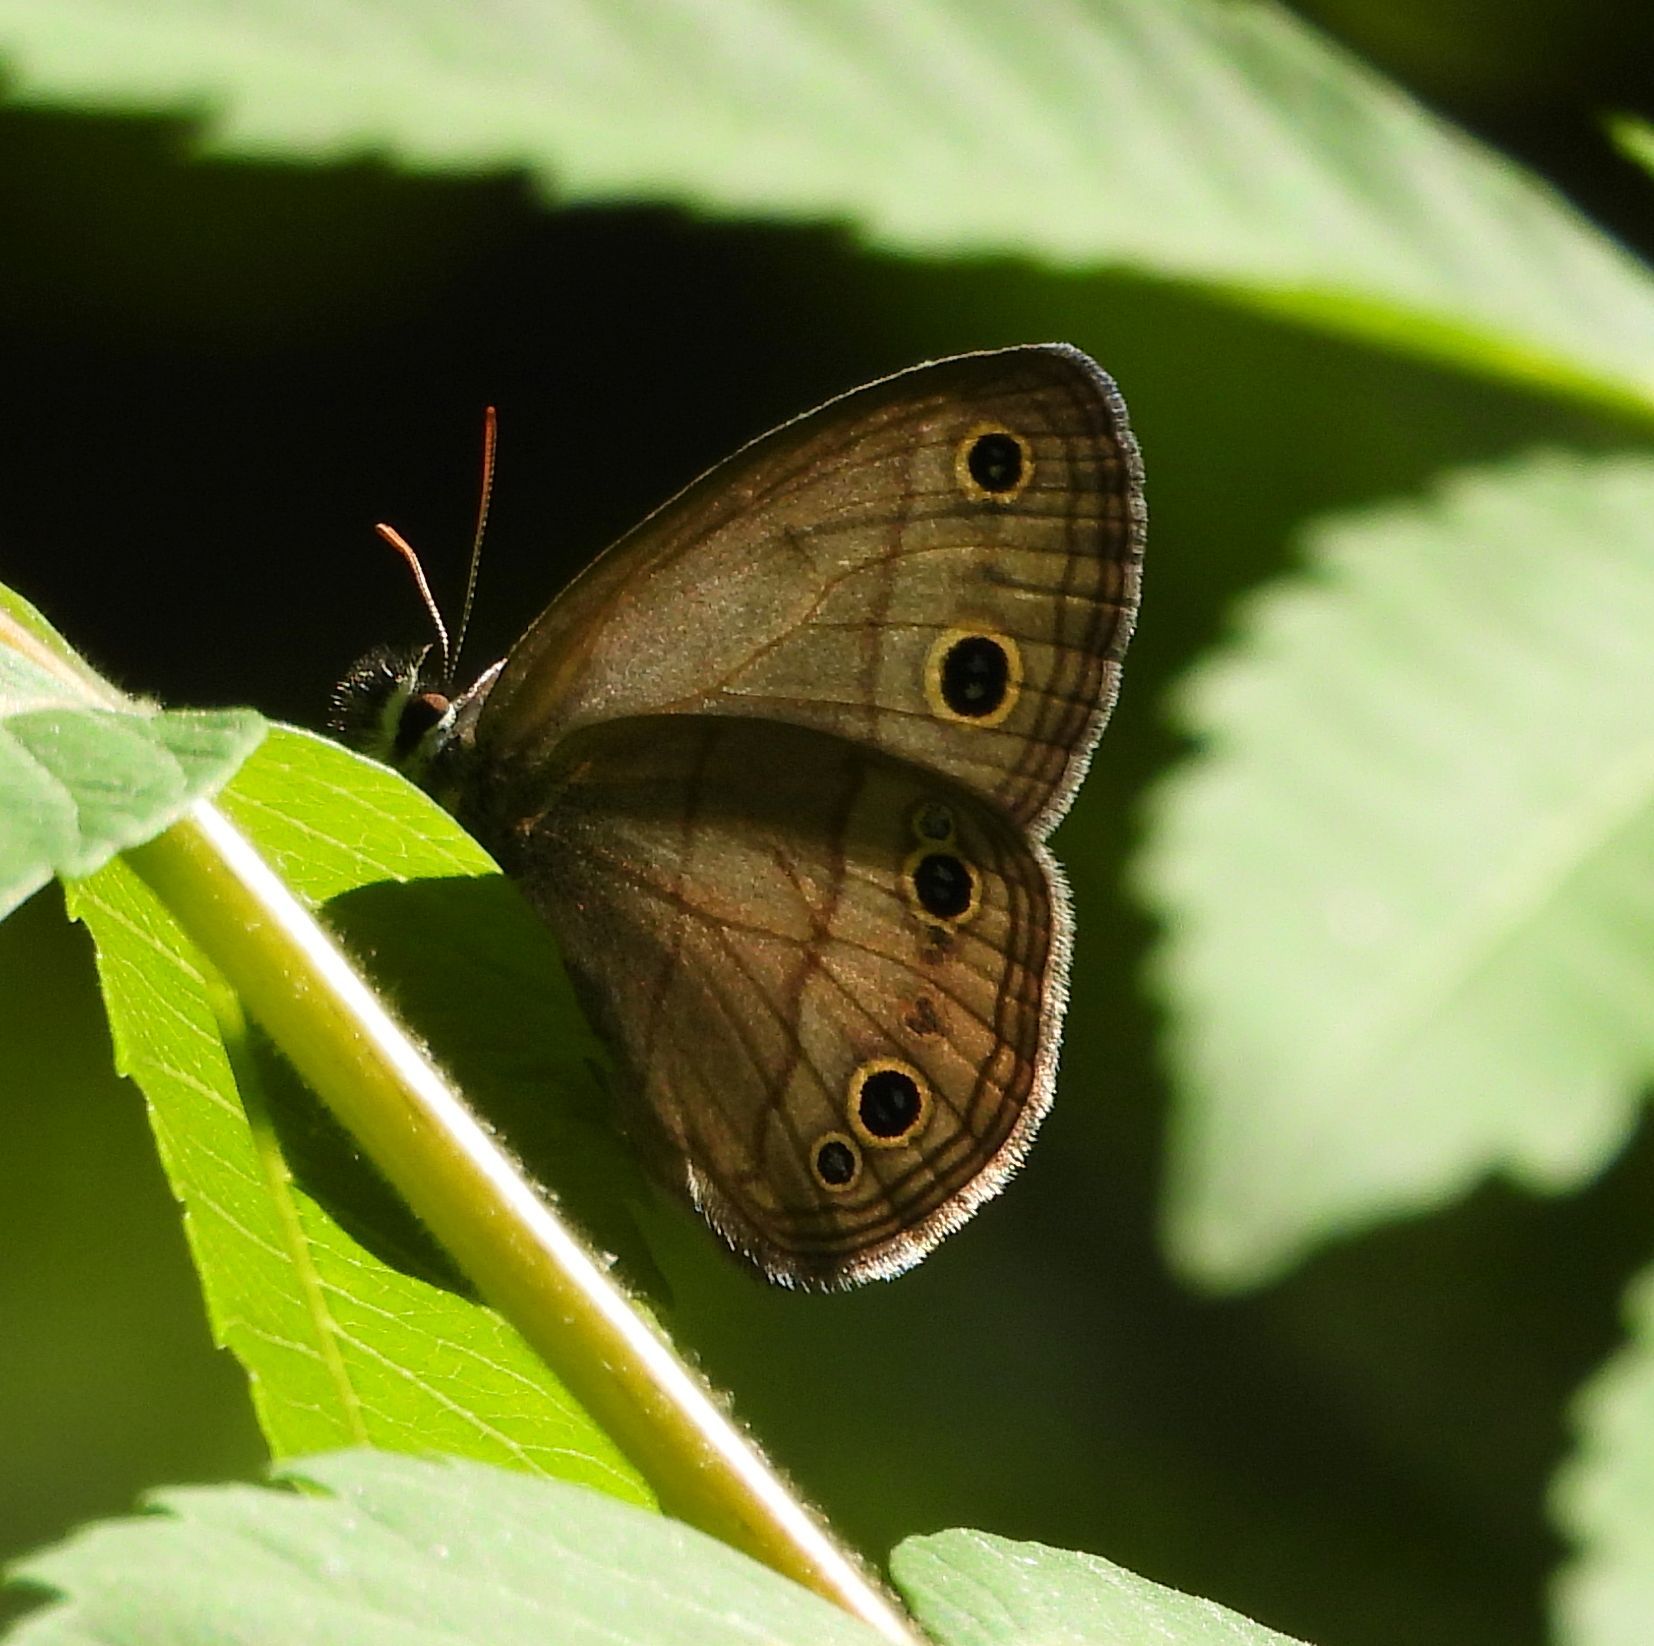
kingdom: Animalia
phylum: Arthropoda
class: Insecta
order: Lepidoptera
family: Nymphalidae
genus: Euptychia
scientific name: Euptychia cymela
